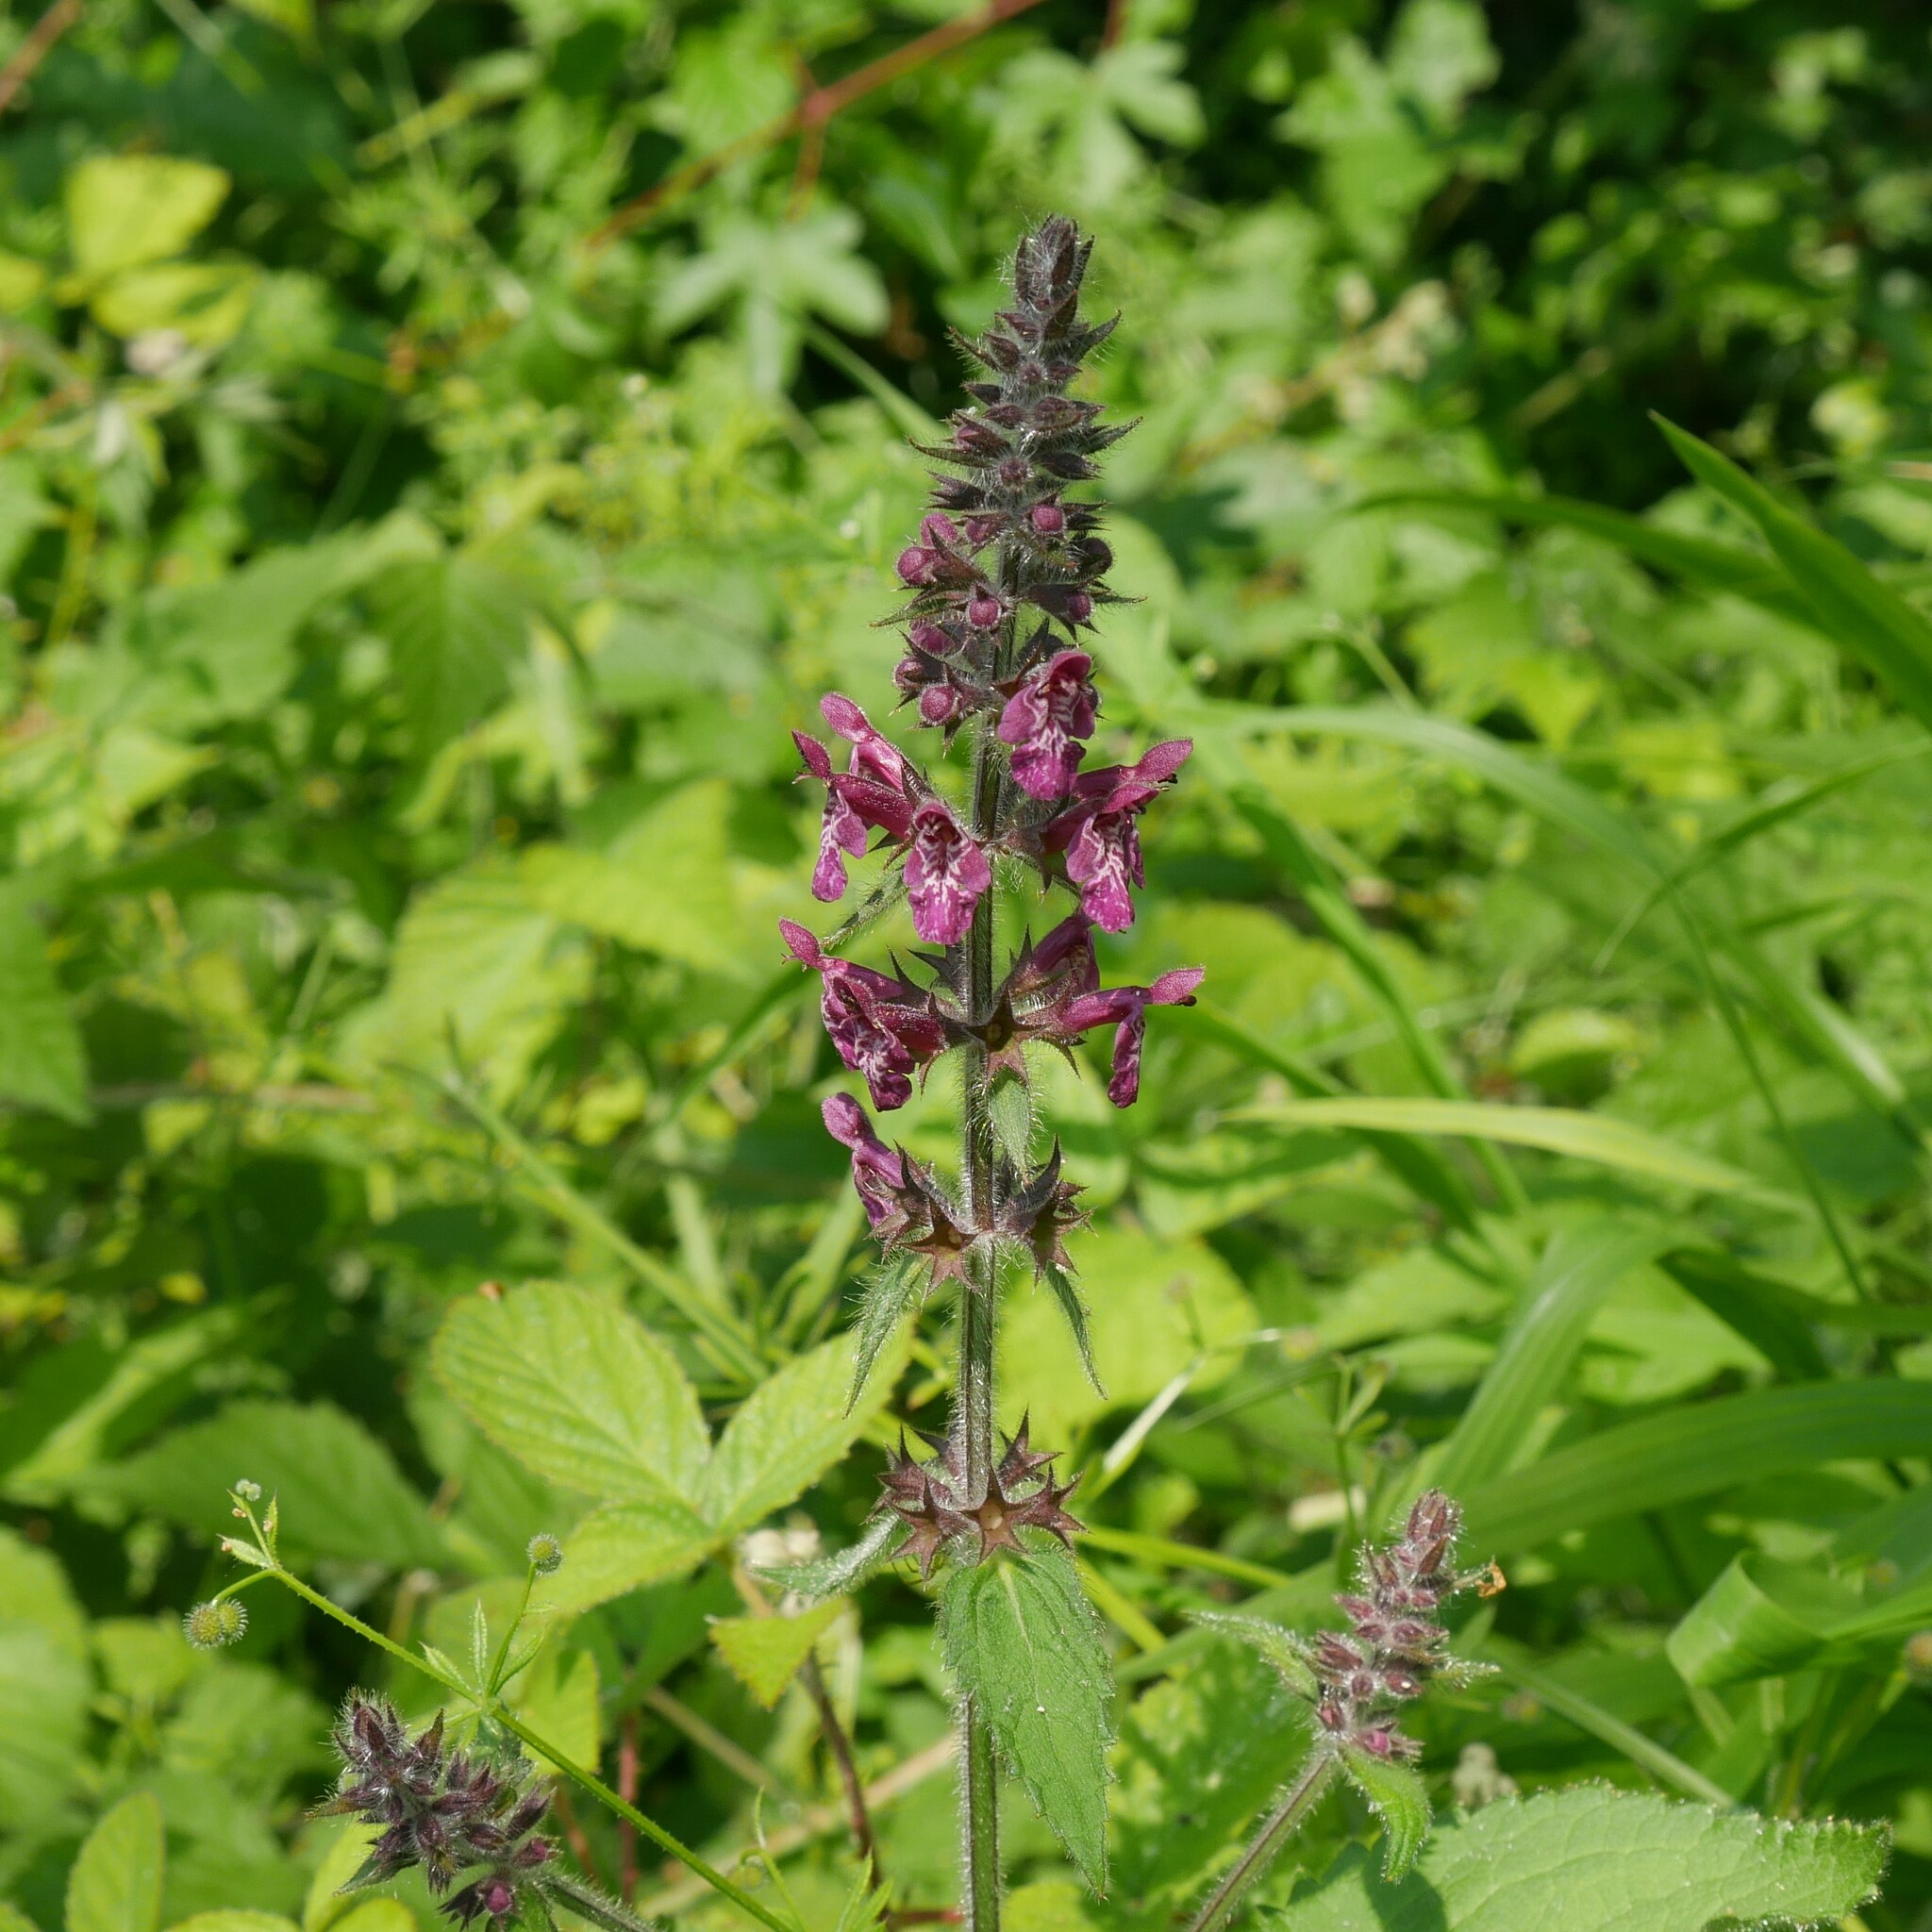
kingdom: Plantae
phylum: Tracheophyta
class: Magnoliopsida
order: Lamiales
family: Lamiaceae
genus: Stachys
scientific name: Stachys sylvatica
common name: Hedge woundwort
